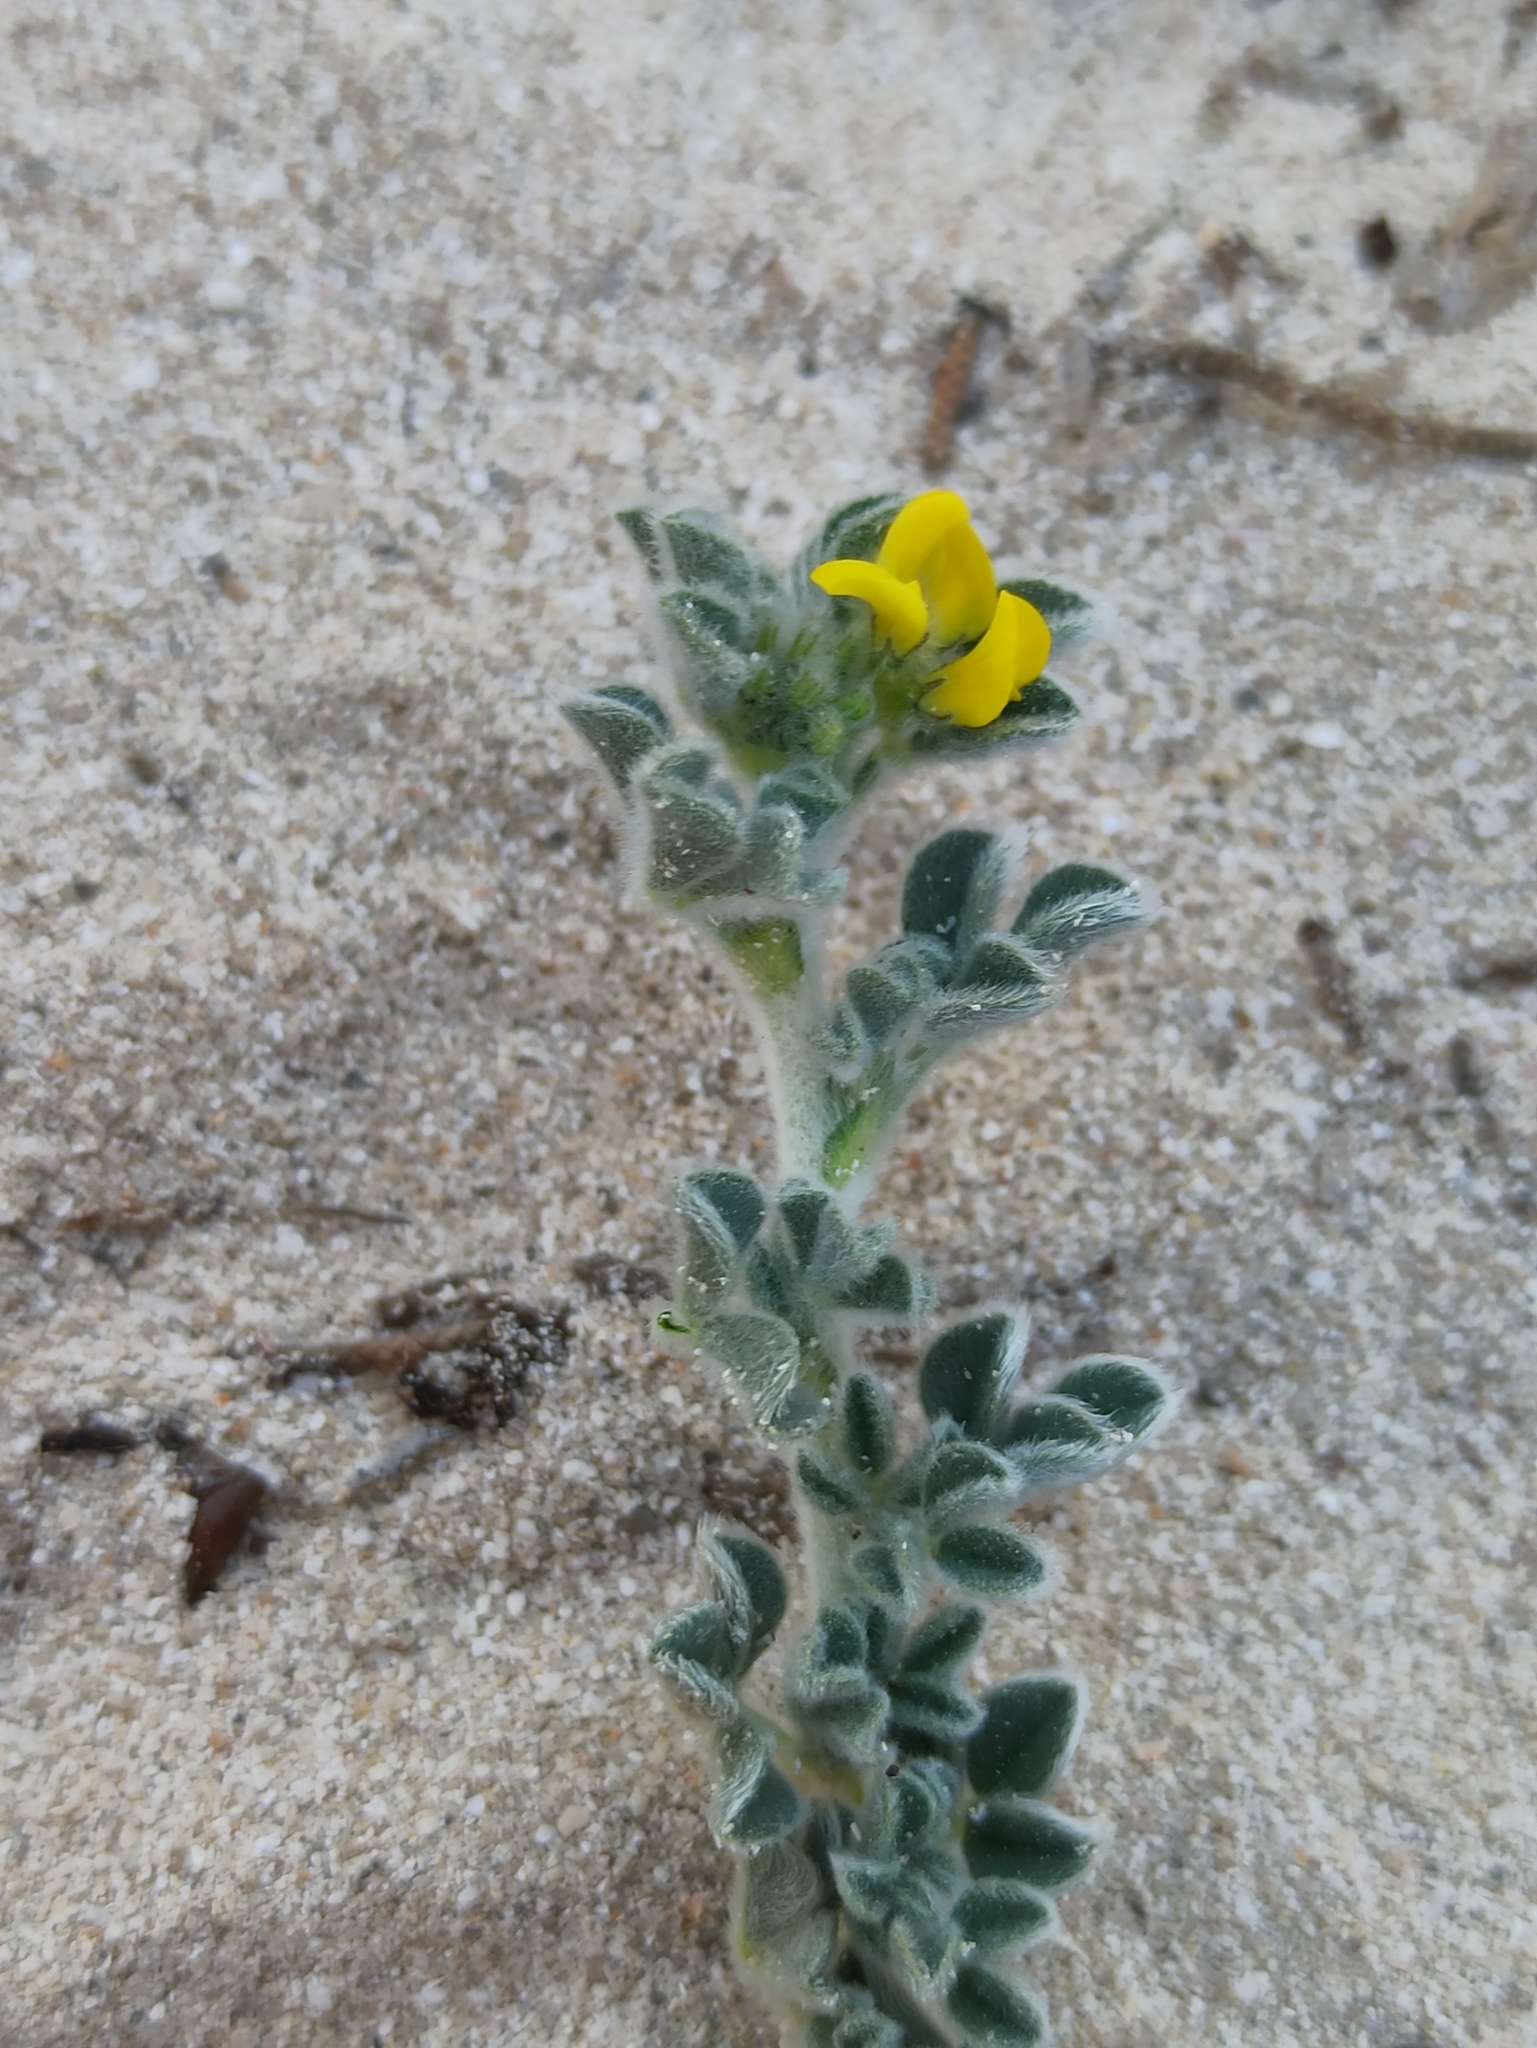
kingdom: Plantae
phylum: Tracheophyta
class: Magnoliopsida
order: Fabales
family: Fabaceae
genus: Medicago
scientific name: Medicago marina
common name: Sea medick
